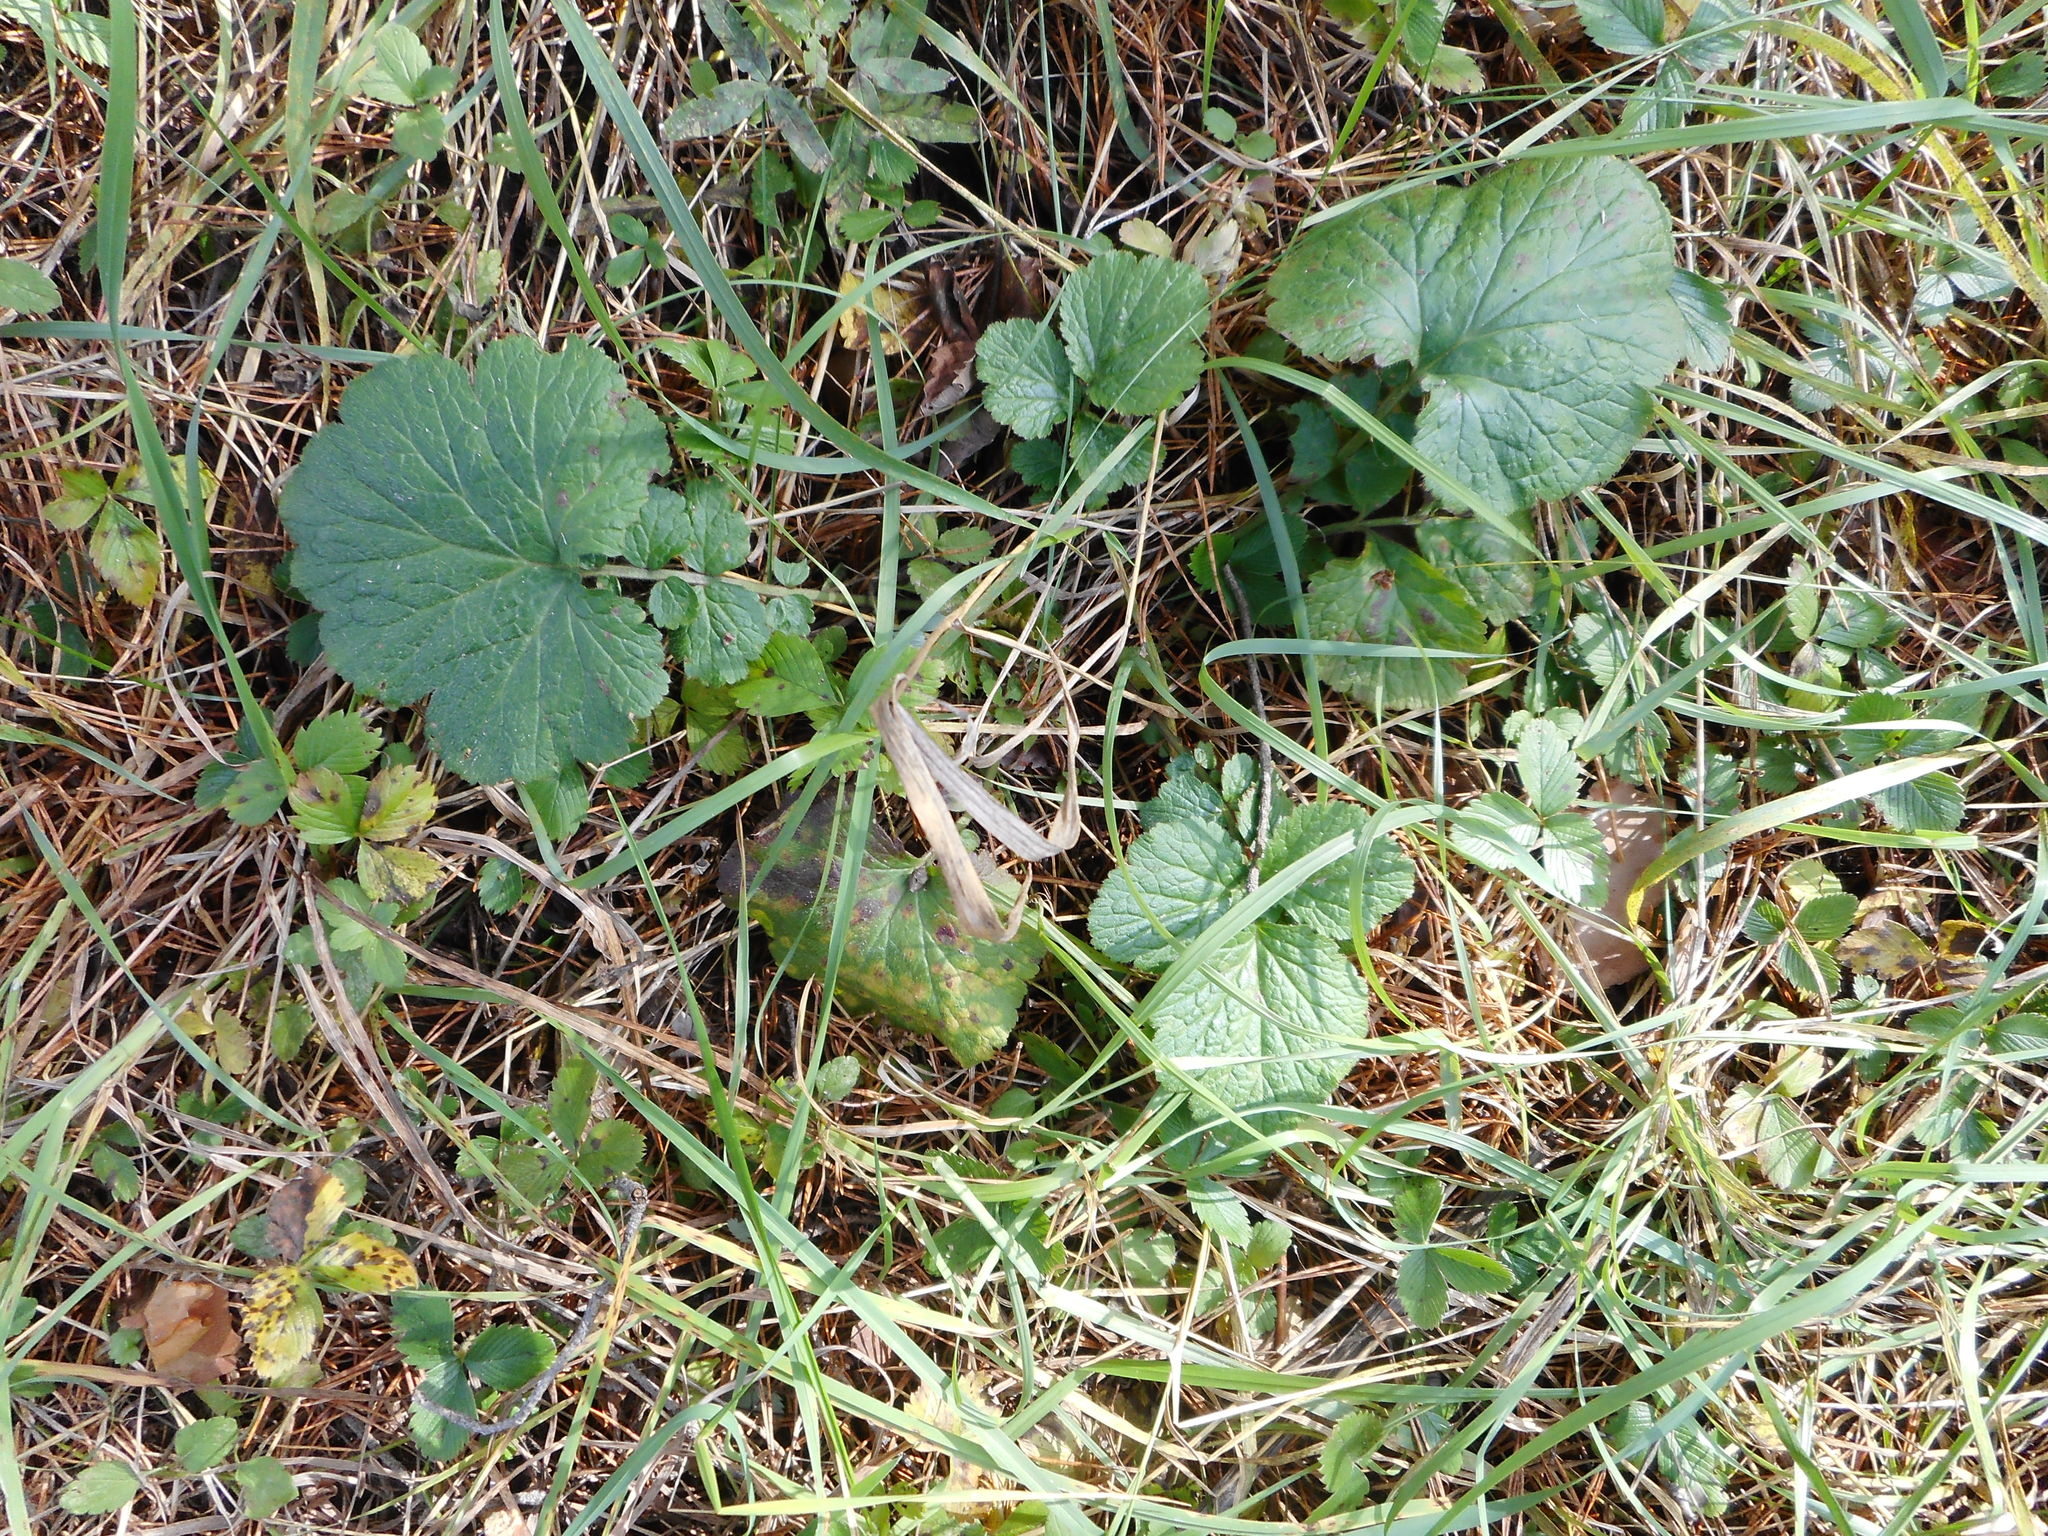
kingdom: Plantae
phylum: Tracheophyta
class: Magnoliopsida
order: Rosales
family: Rosaceae
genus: Geum
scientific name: Geum rivale
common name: Water avens
